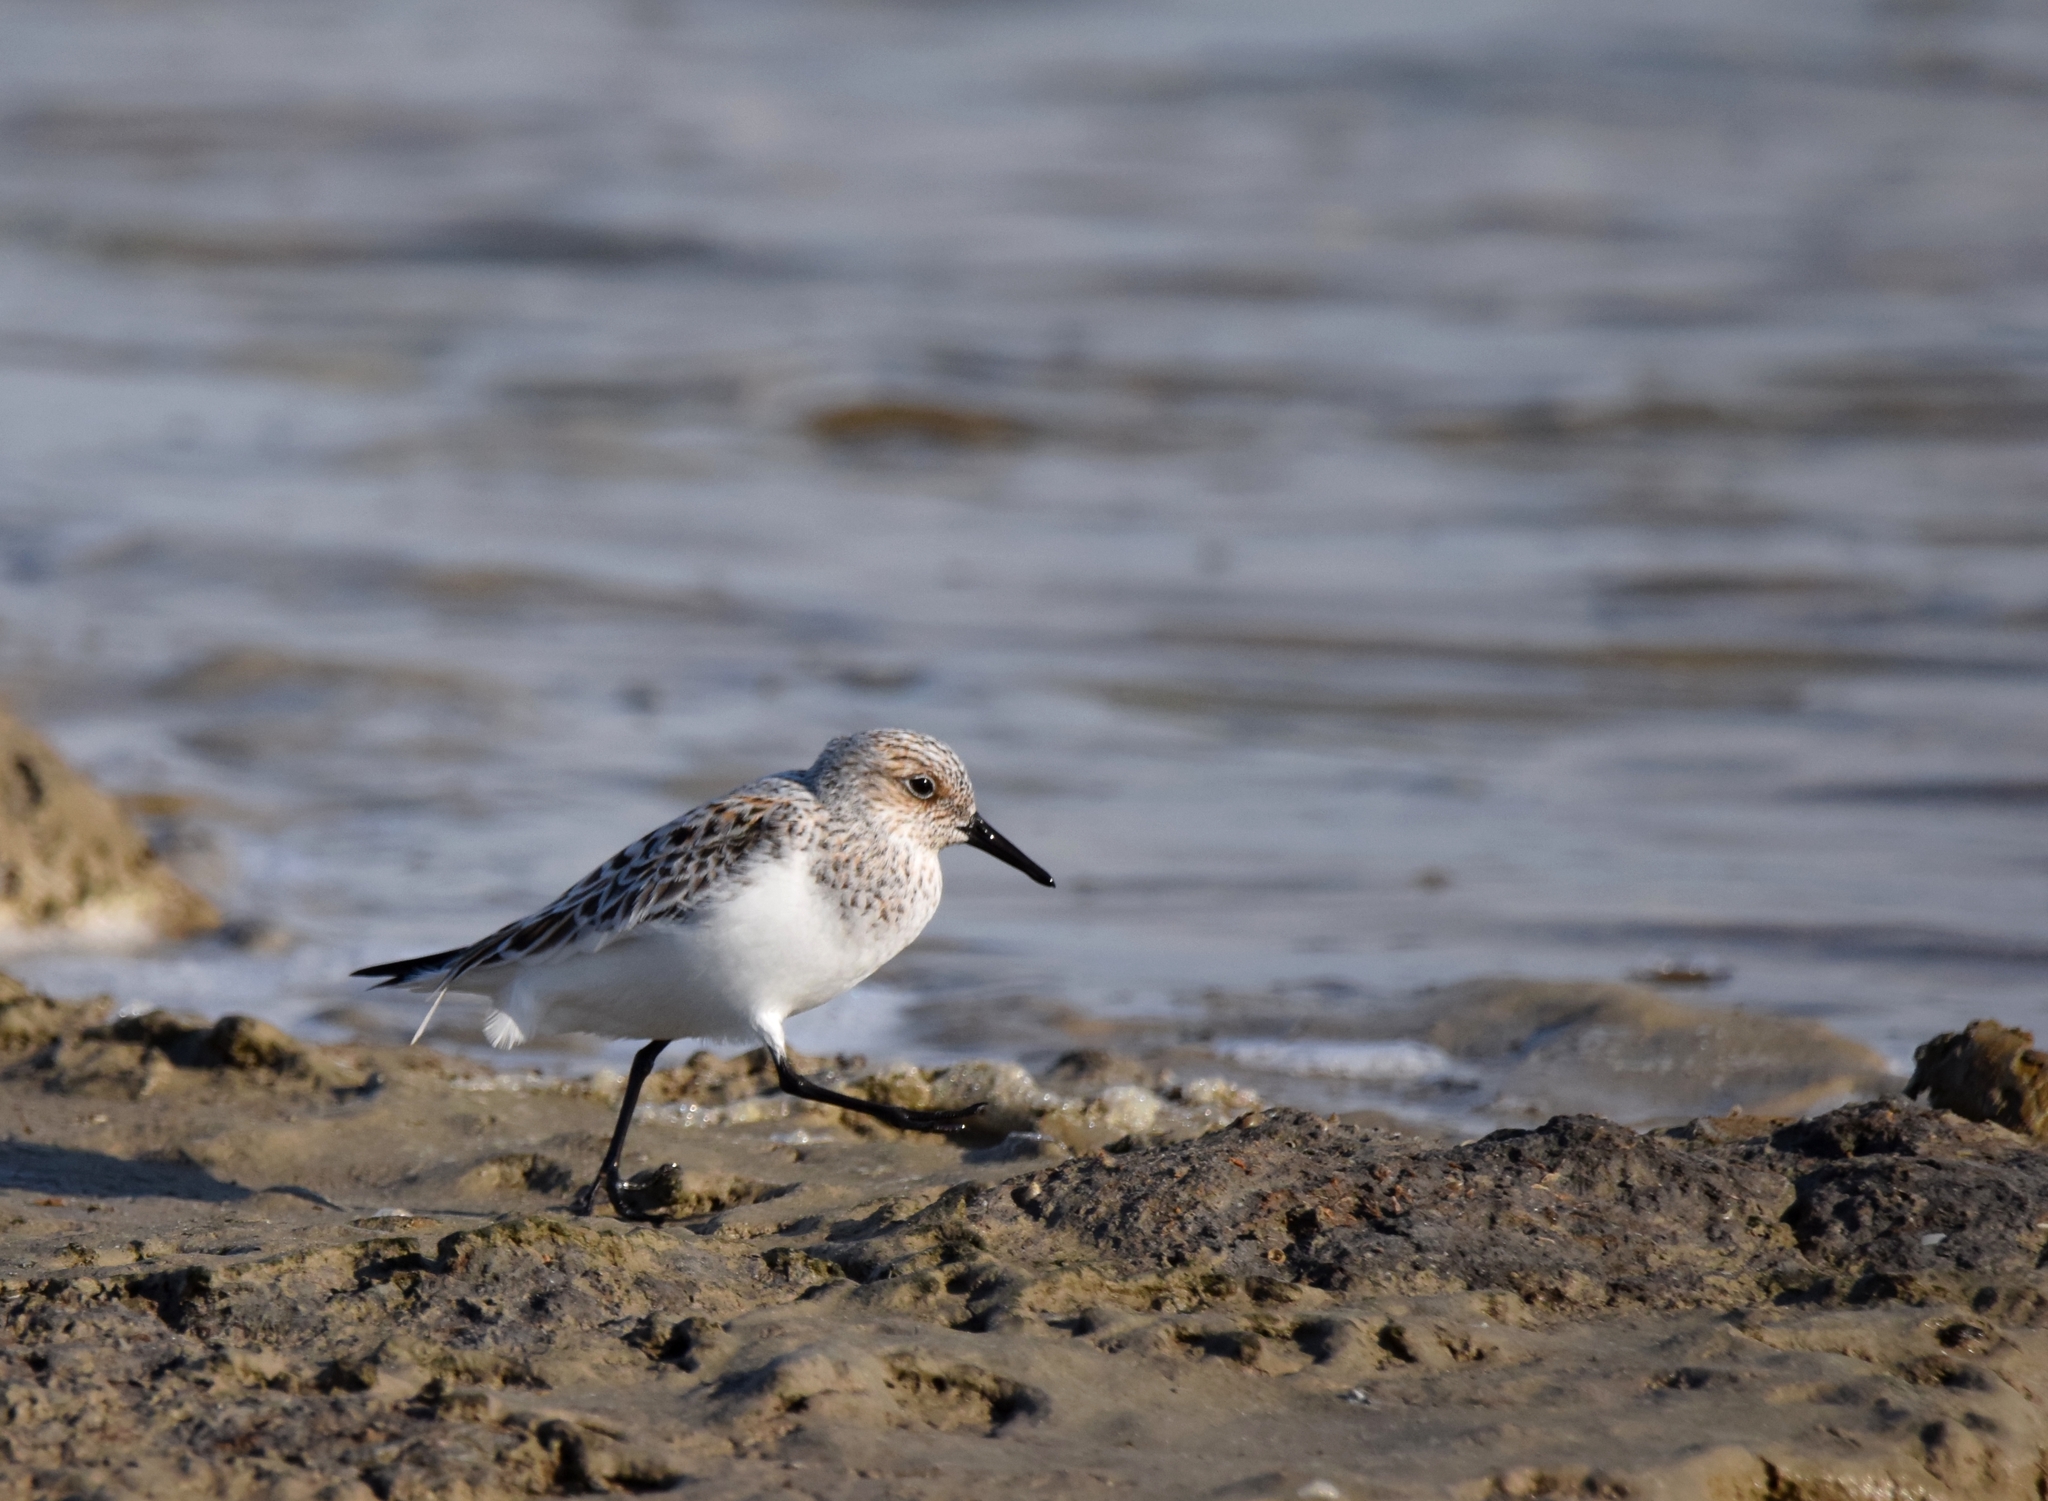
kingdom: Animalia
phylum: Chordata
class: Aves
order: Charadriiformes
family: Scolopacidae
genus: Calidris
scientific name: Calidris alba
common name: Sanderling
